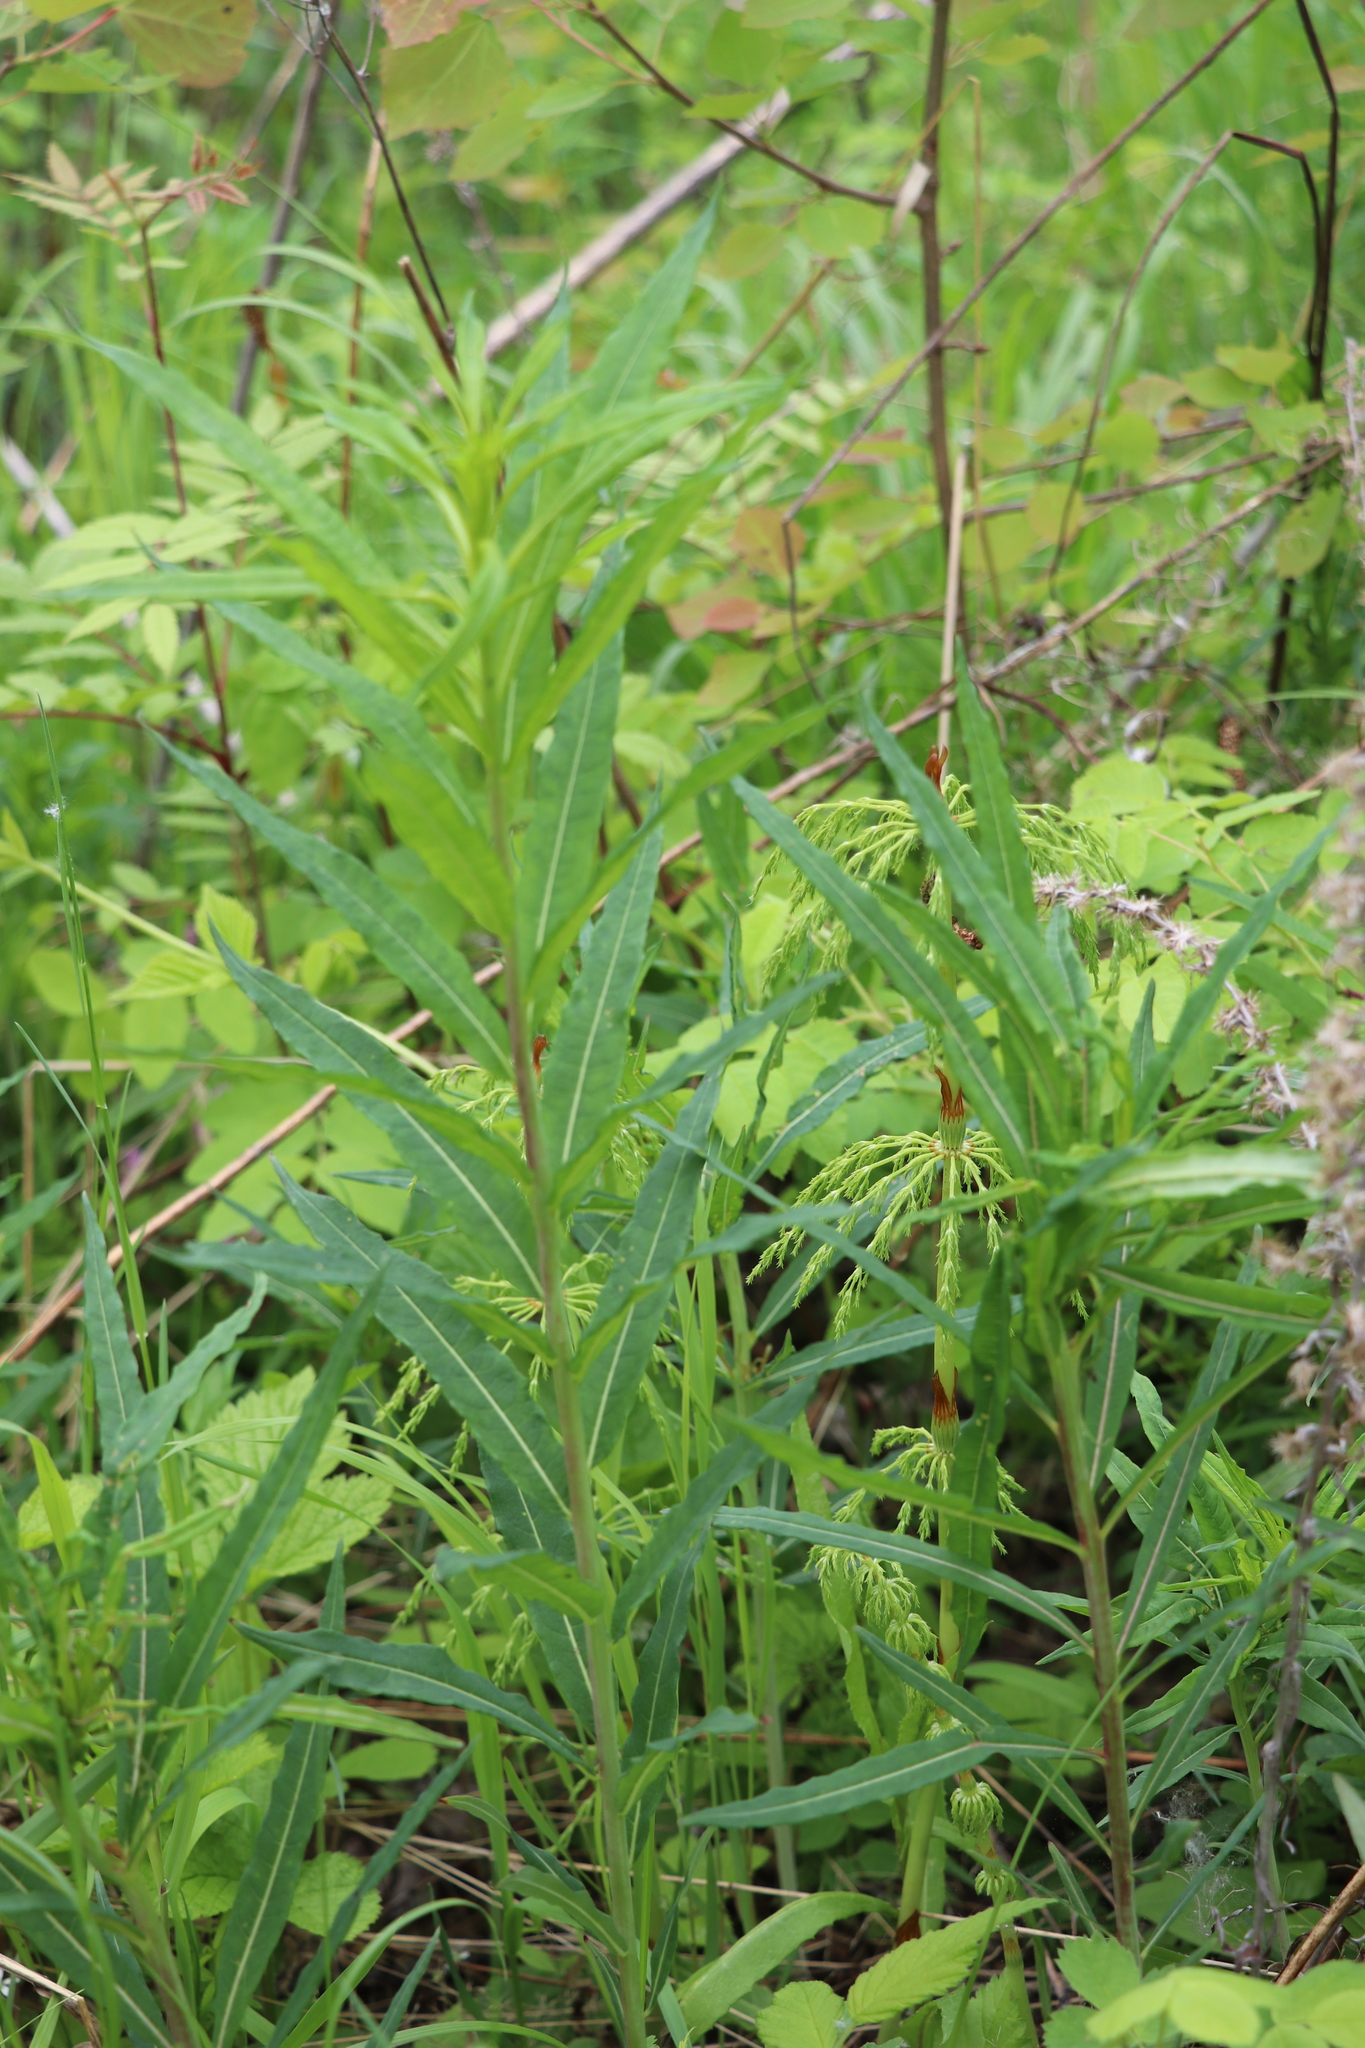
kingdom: Plantae
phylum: Tracheophyta
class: Magnoliopsida
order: Myrtales
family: Onagraceae
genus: Chamaenerion
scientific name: Chamaenerion angustifolium
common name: Fireweed
